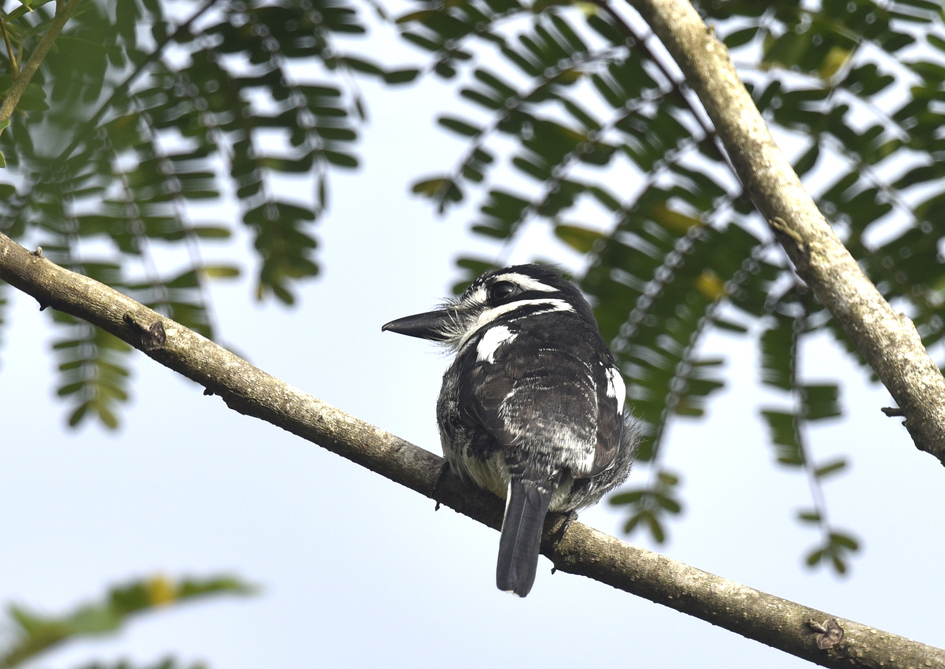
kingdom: Animalia
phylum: Chordata
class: Aves
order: Piciformes
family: Bucconidae
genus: Notharchus
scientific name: Notharchus tectus
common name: Pied puffbird
